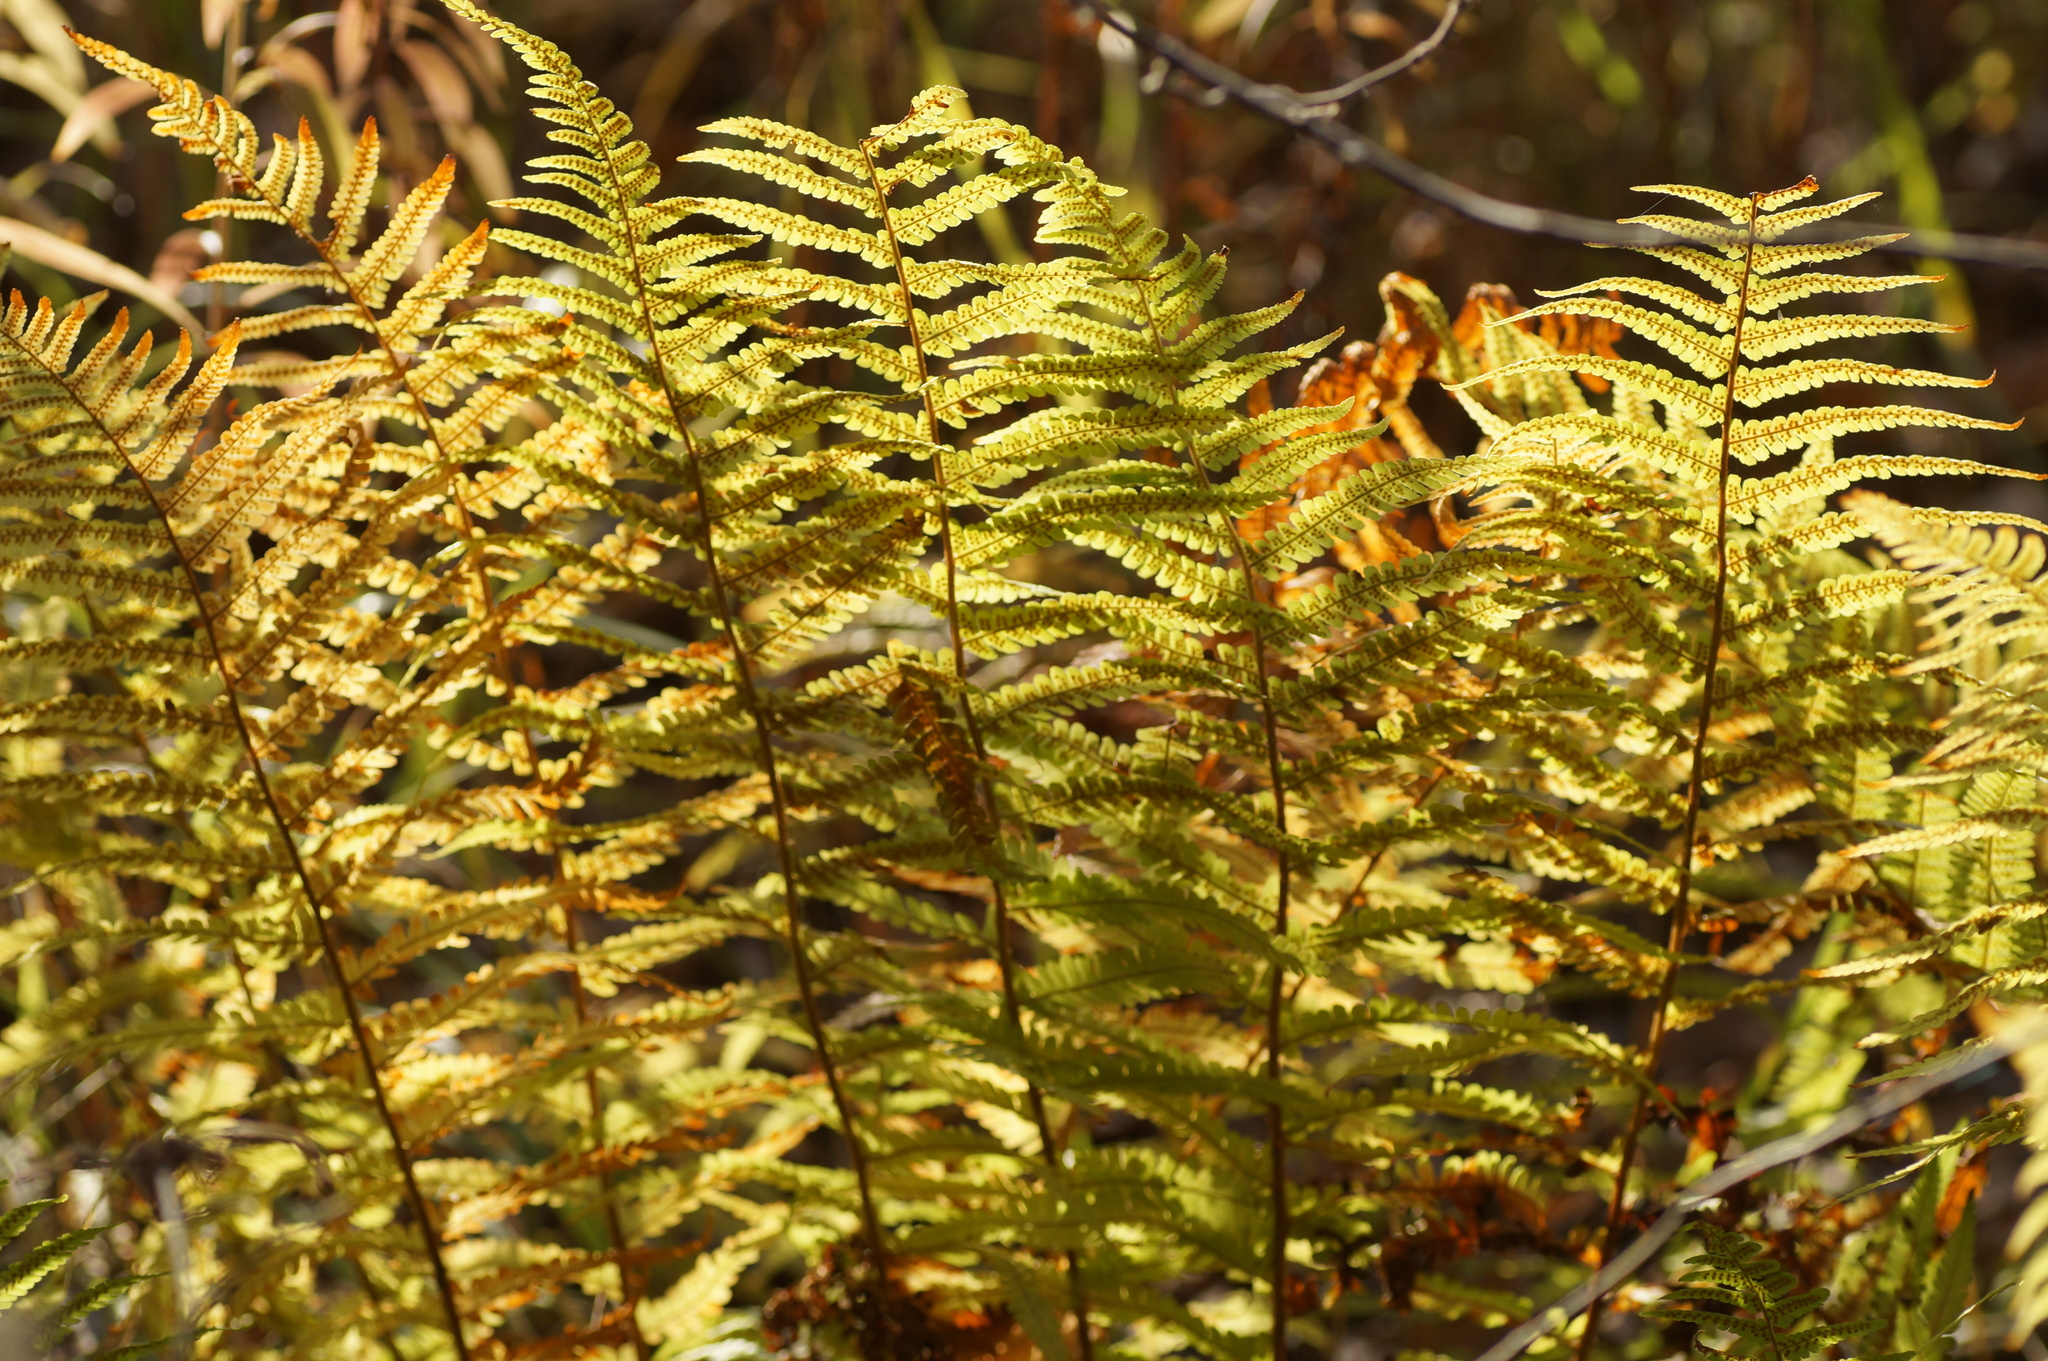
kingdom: Plantae
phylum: Tracheophyta
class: Polypodiopsida
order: Polypodiales
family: Dryopteridaceae
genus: Dryopteris
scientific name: Dryopteris filix-mas
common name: Male fern
